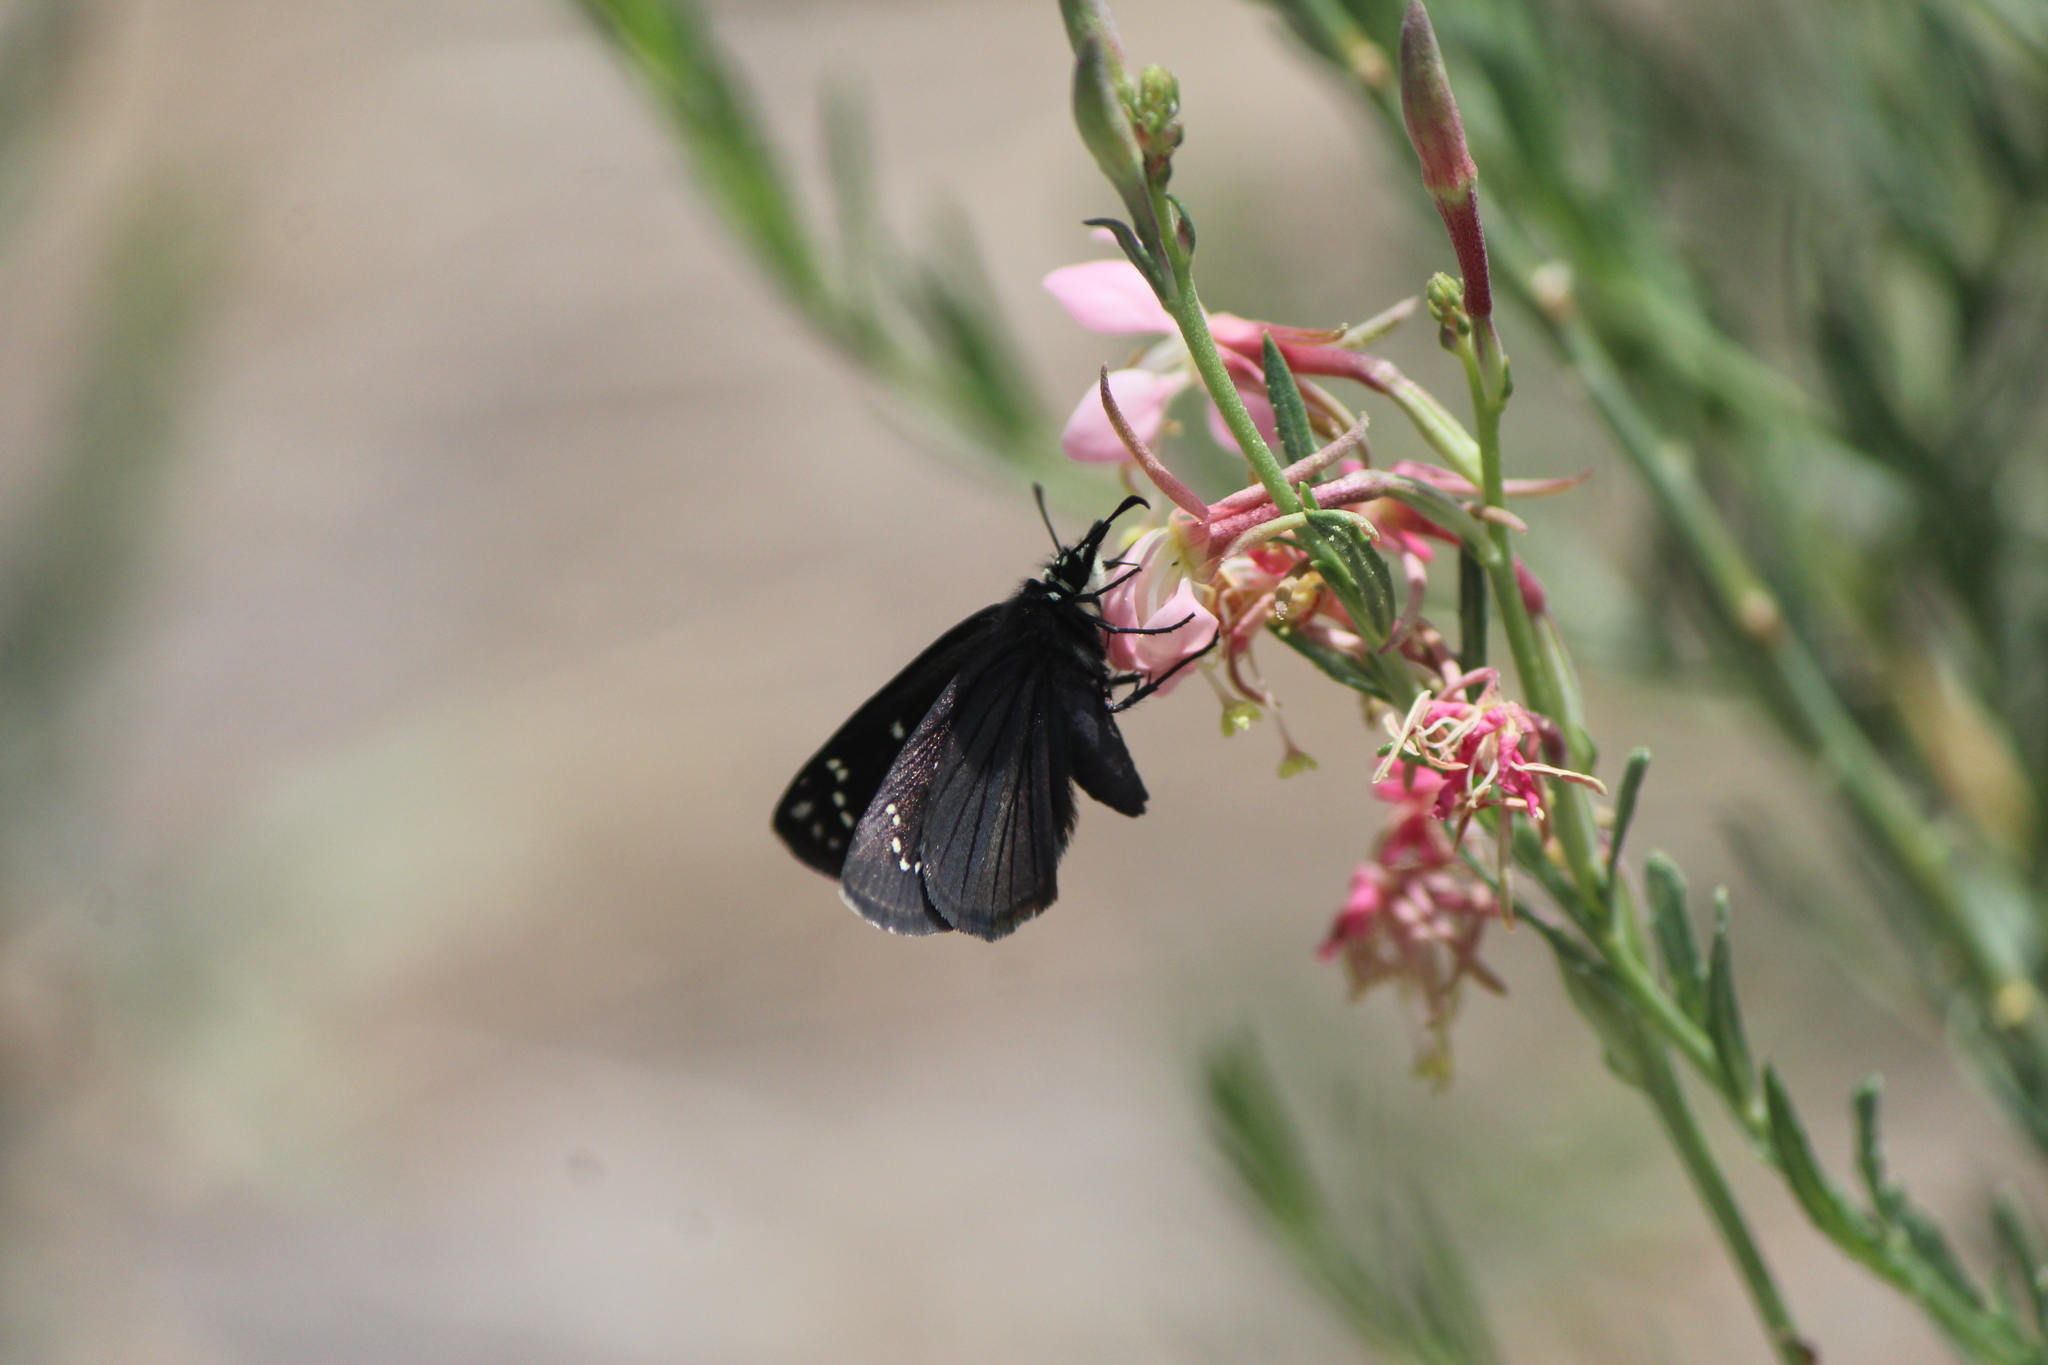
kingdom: Animalia
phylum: Arthropoda
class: Insecta
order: Lepidoptera
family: Hesperiidae
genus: Pholisora
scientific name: Pholisora mejicanus
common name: Mexican sootywing
